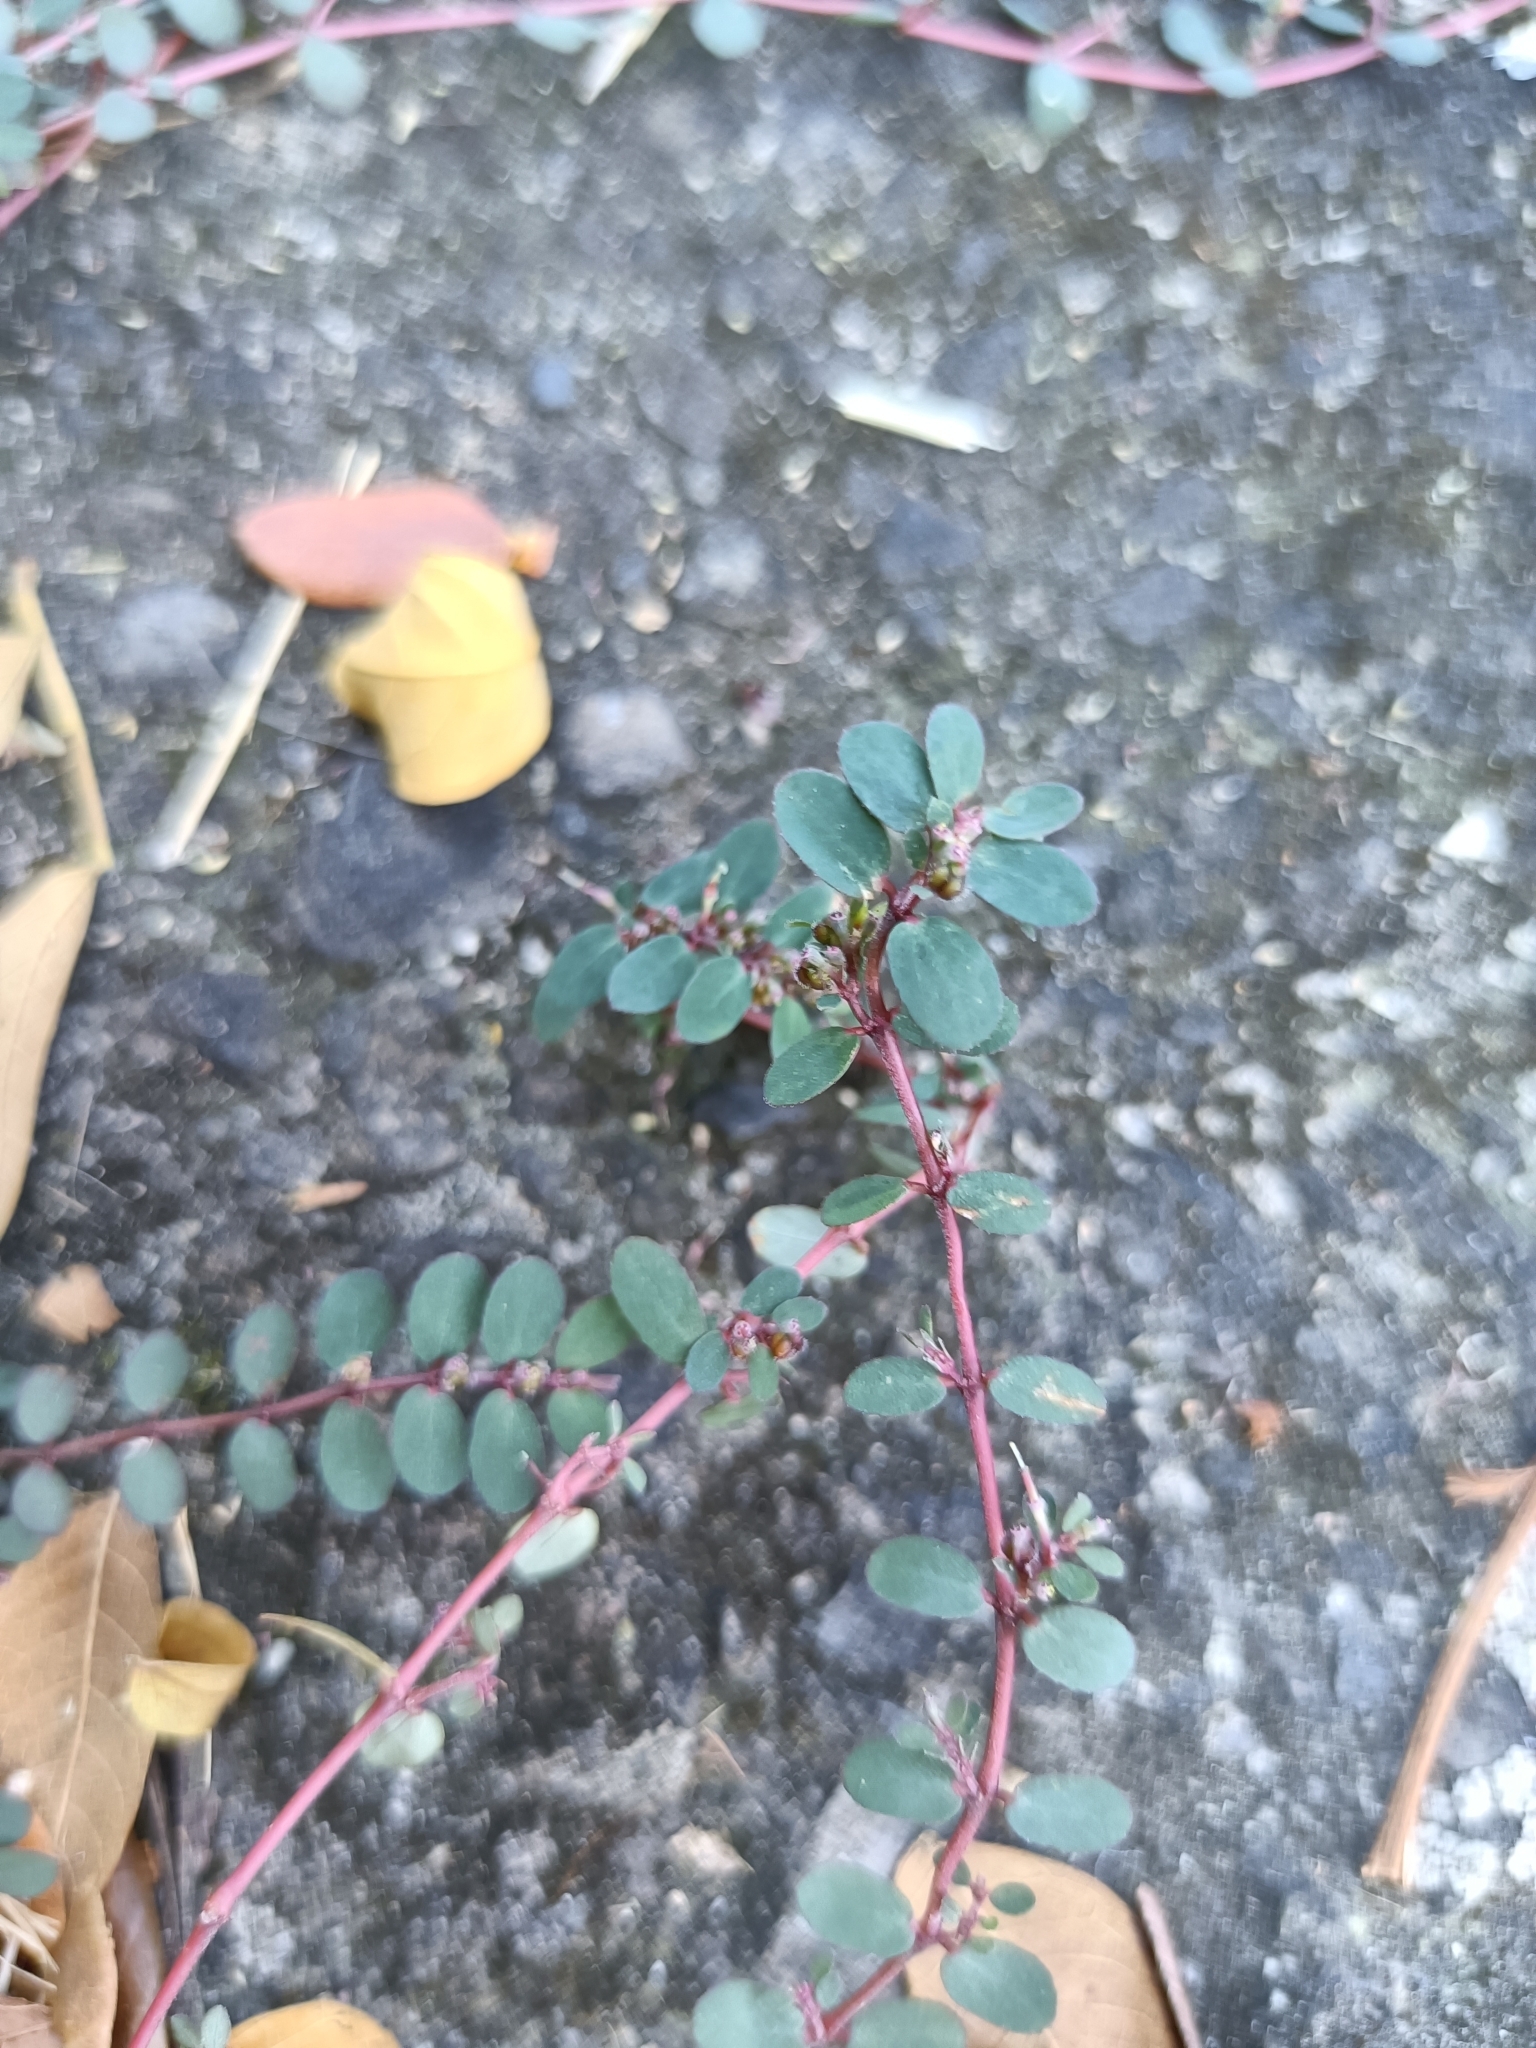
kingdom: Plantae
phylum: Tracheophyta
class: Magnoliopsida
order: Malpighiales
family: Euphorbiaceae
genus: Euphorbia
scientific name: Euphorbia prostrata
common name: Prostrate sandmat
